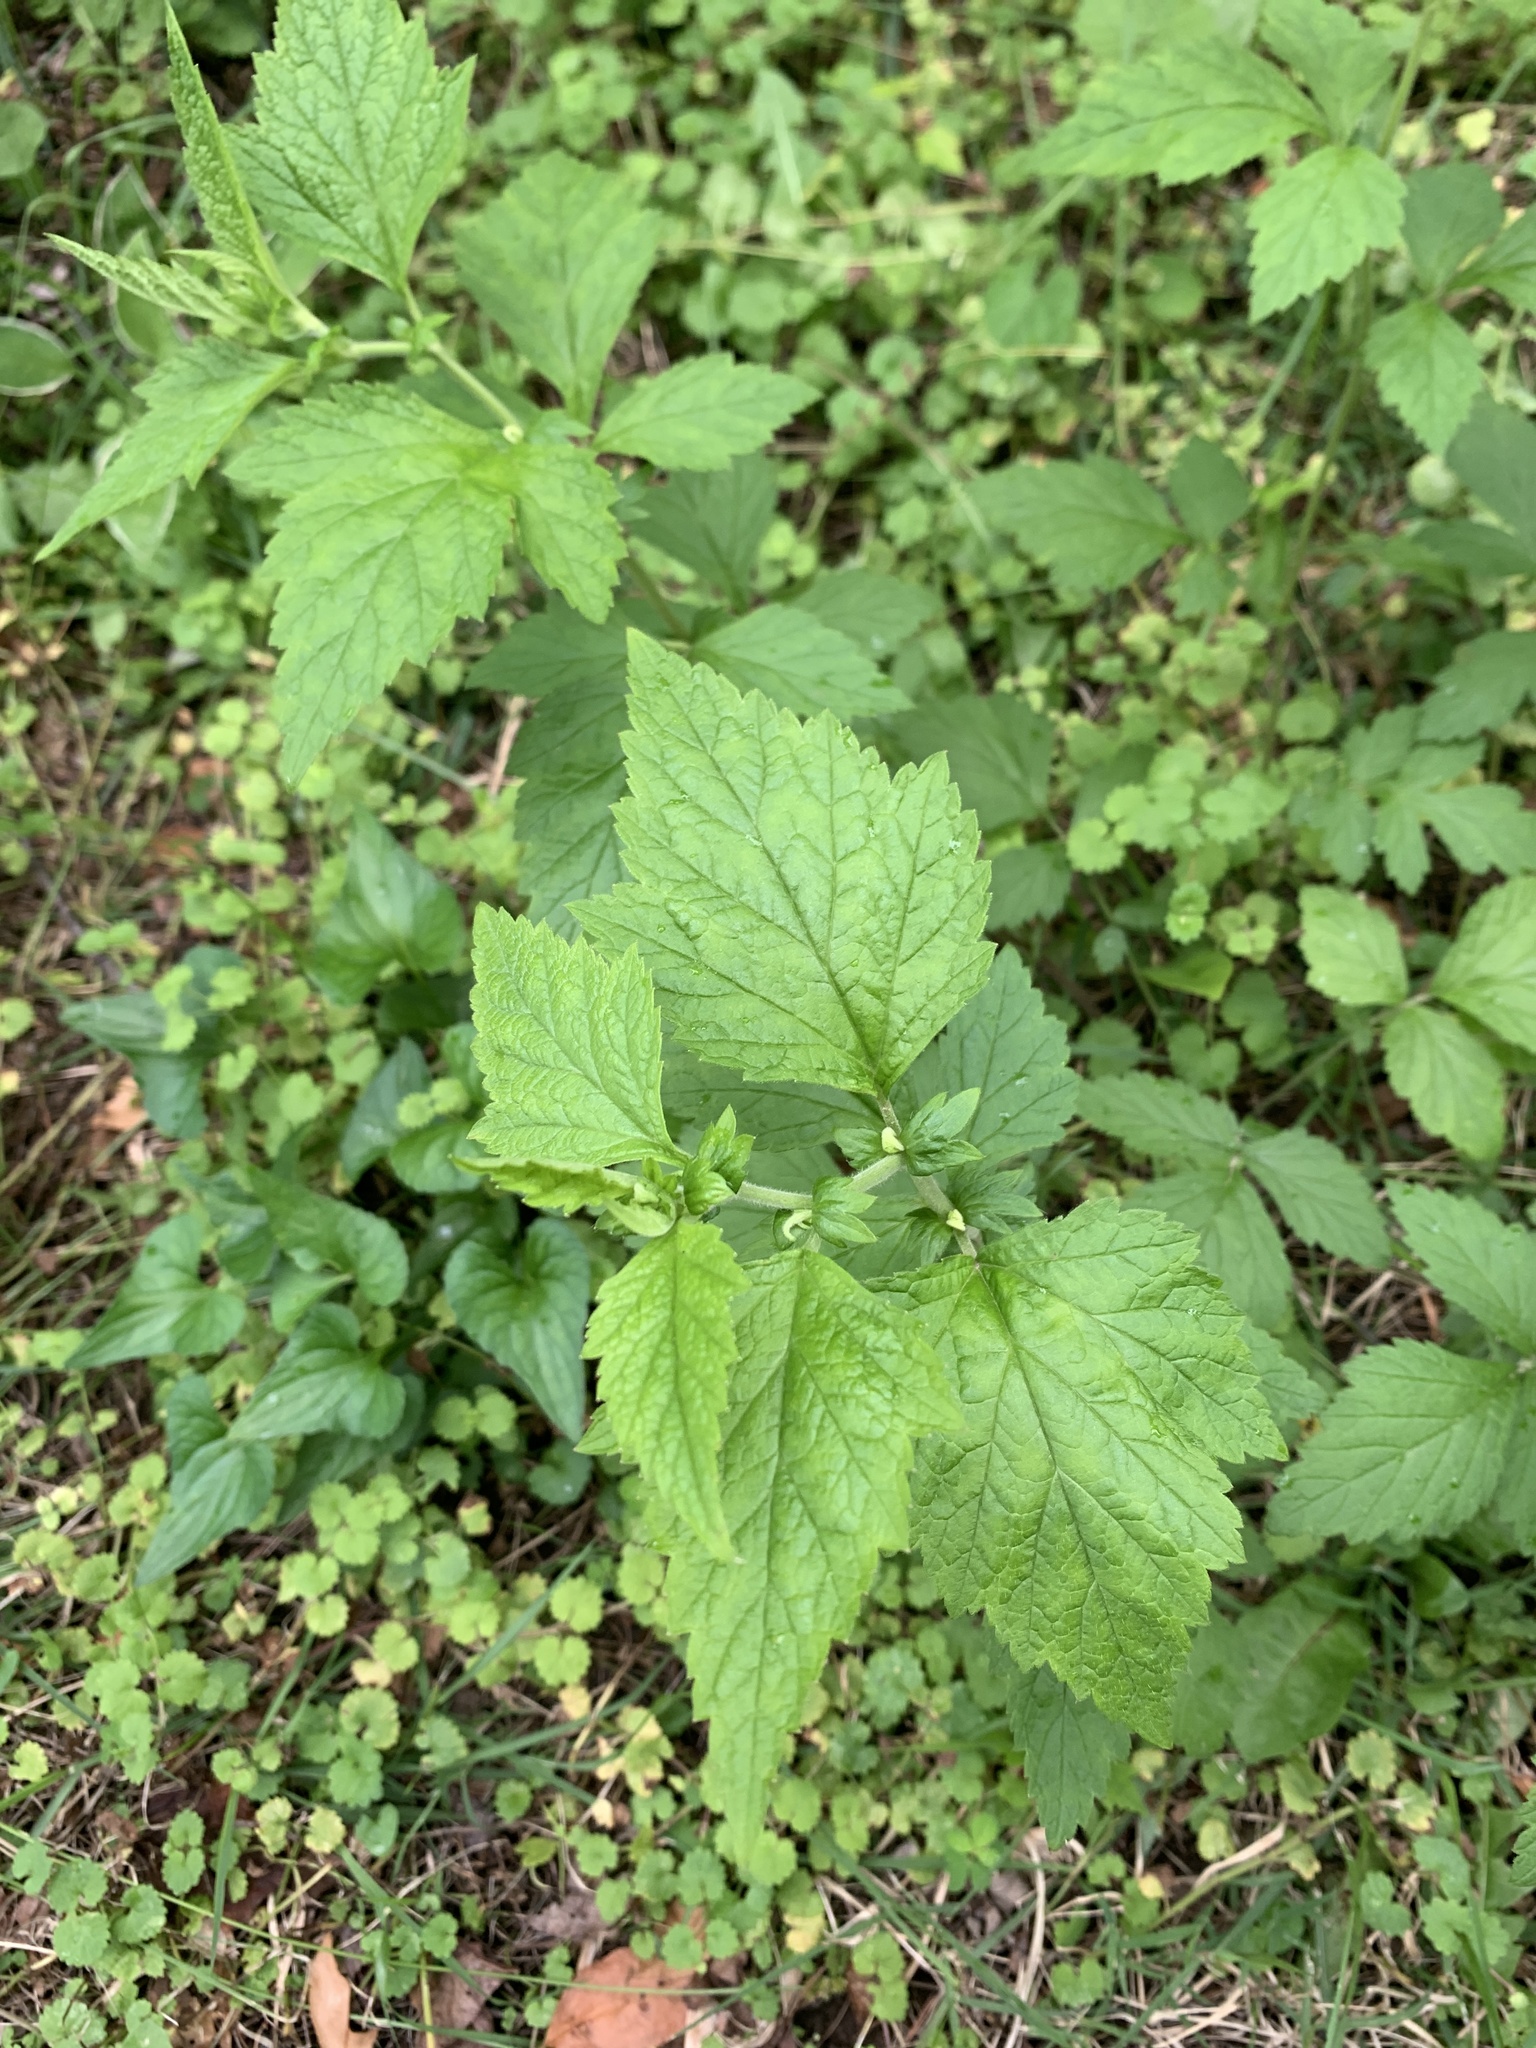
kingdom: Plantae
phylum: Tracheophyta
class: Magnoliopsida
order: Rosales
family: Rosaceae
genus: Geum
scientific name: Geum canadense
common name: White avens
